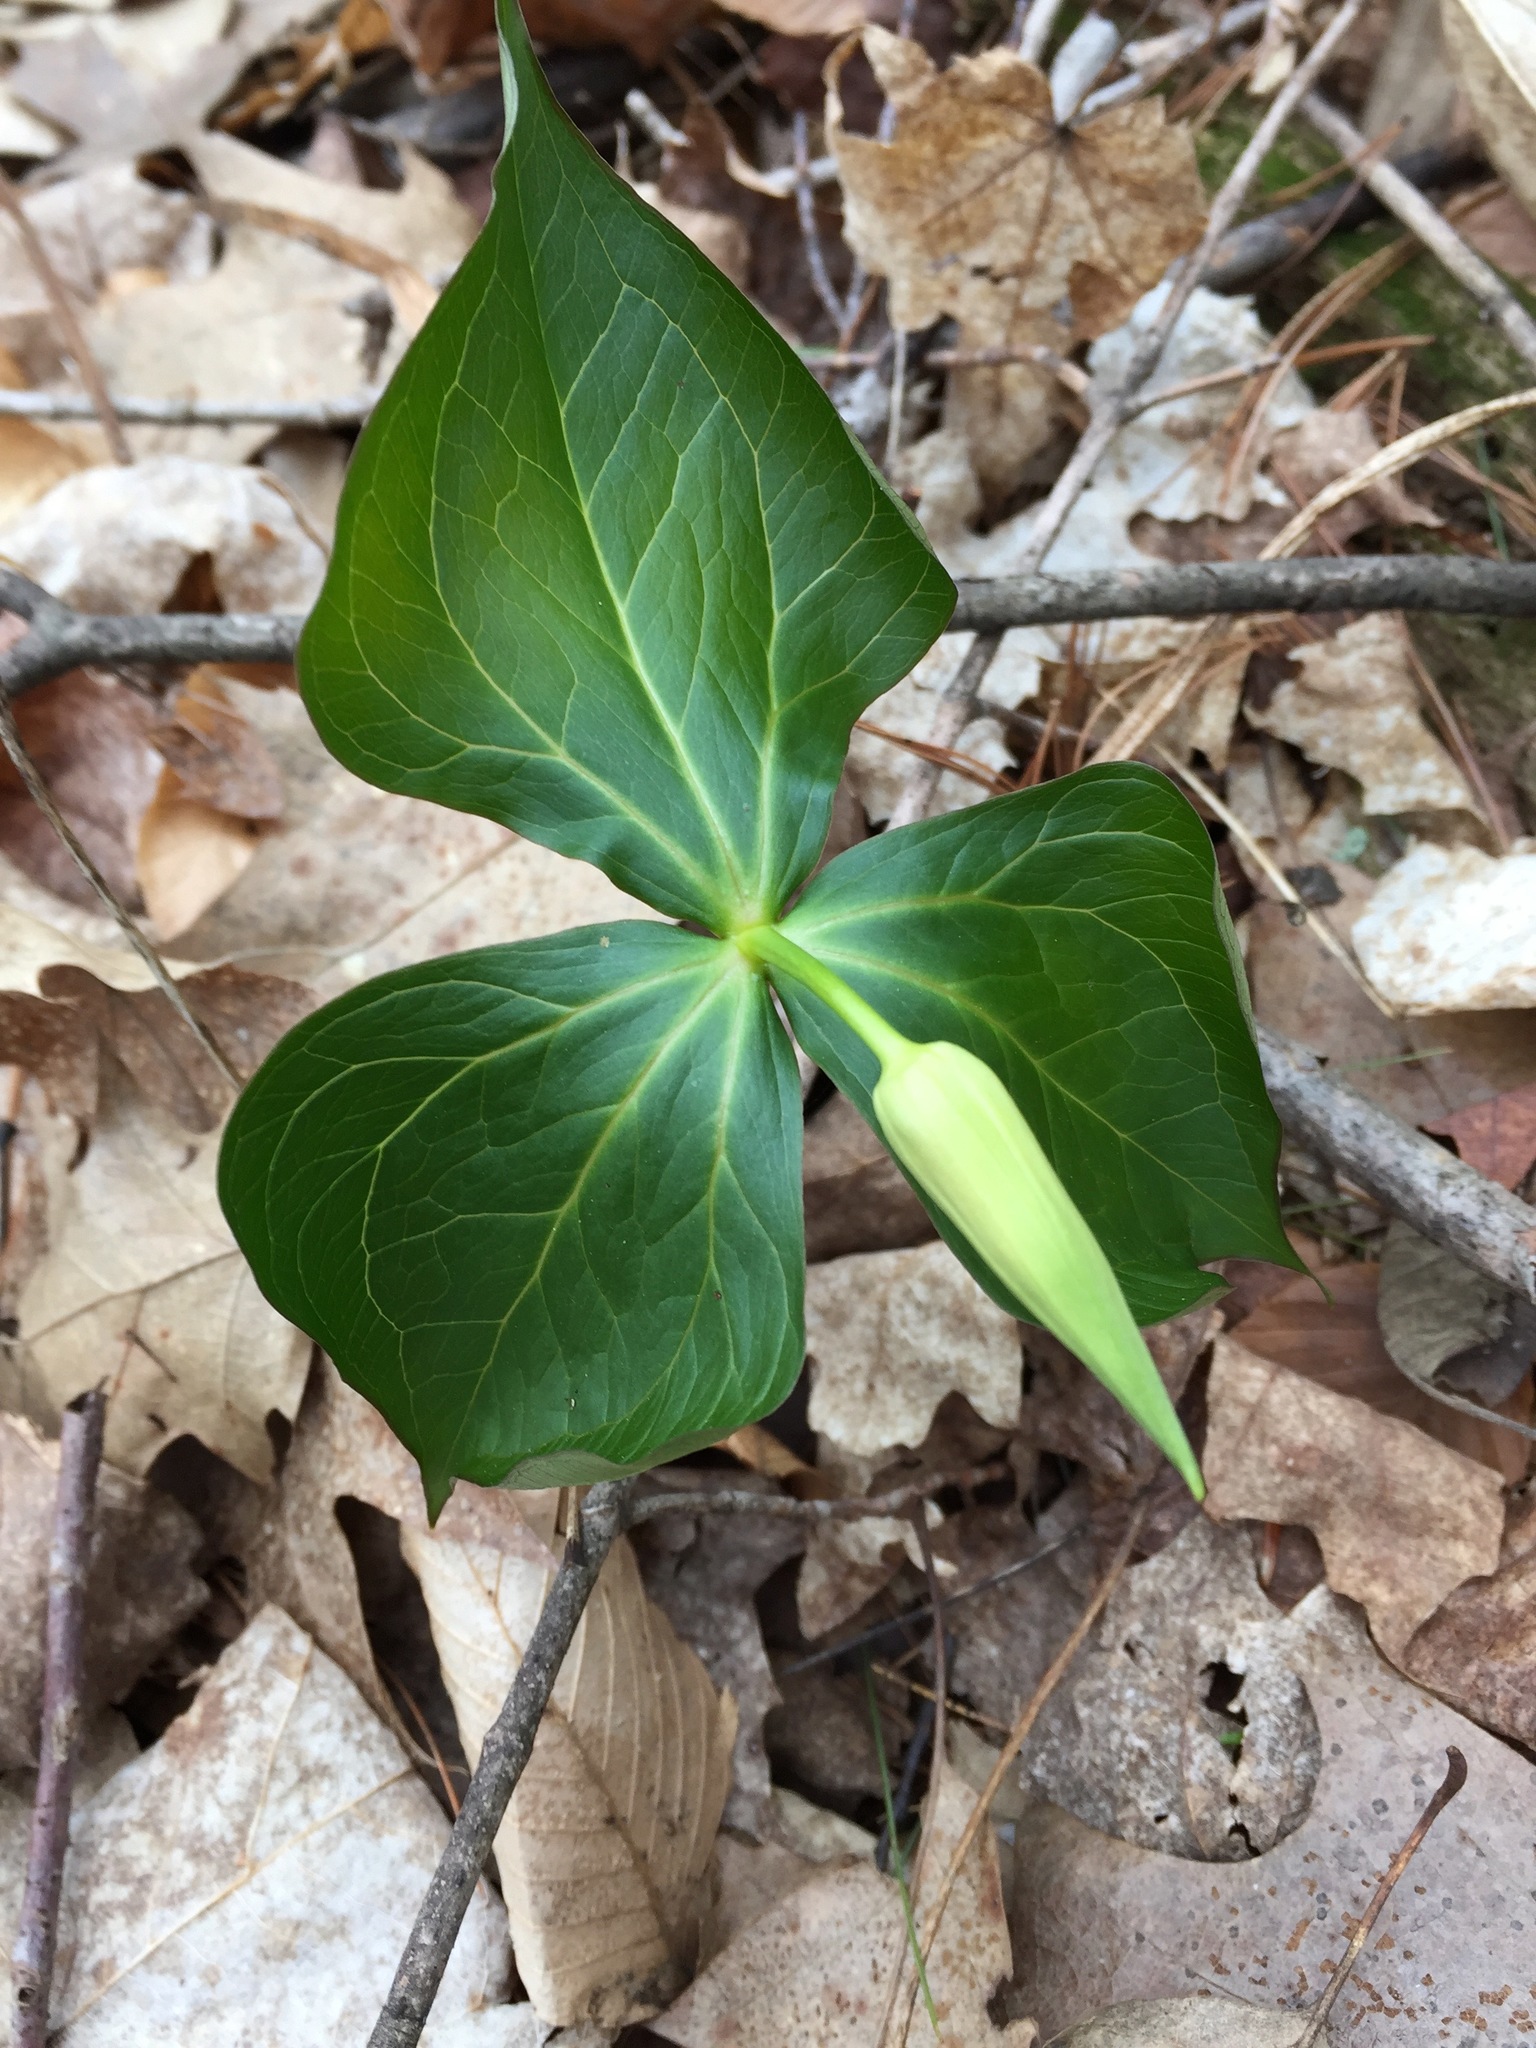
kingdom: Plantae
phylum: Tracheophyta
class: Liliopsida
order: Liliales
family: Melanthiaceae
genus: Trillium
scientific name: Trillium erectum
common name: Purple trillium
